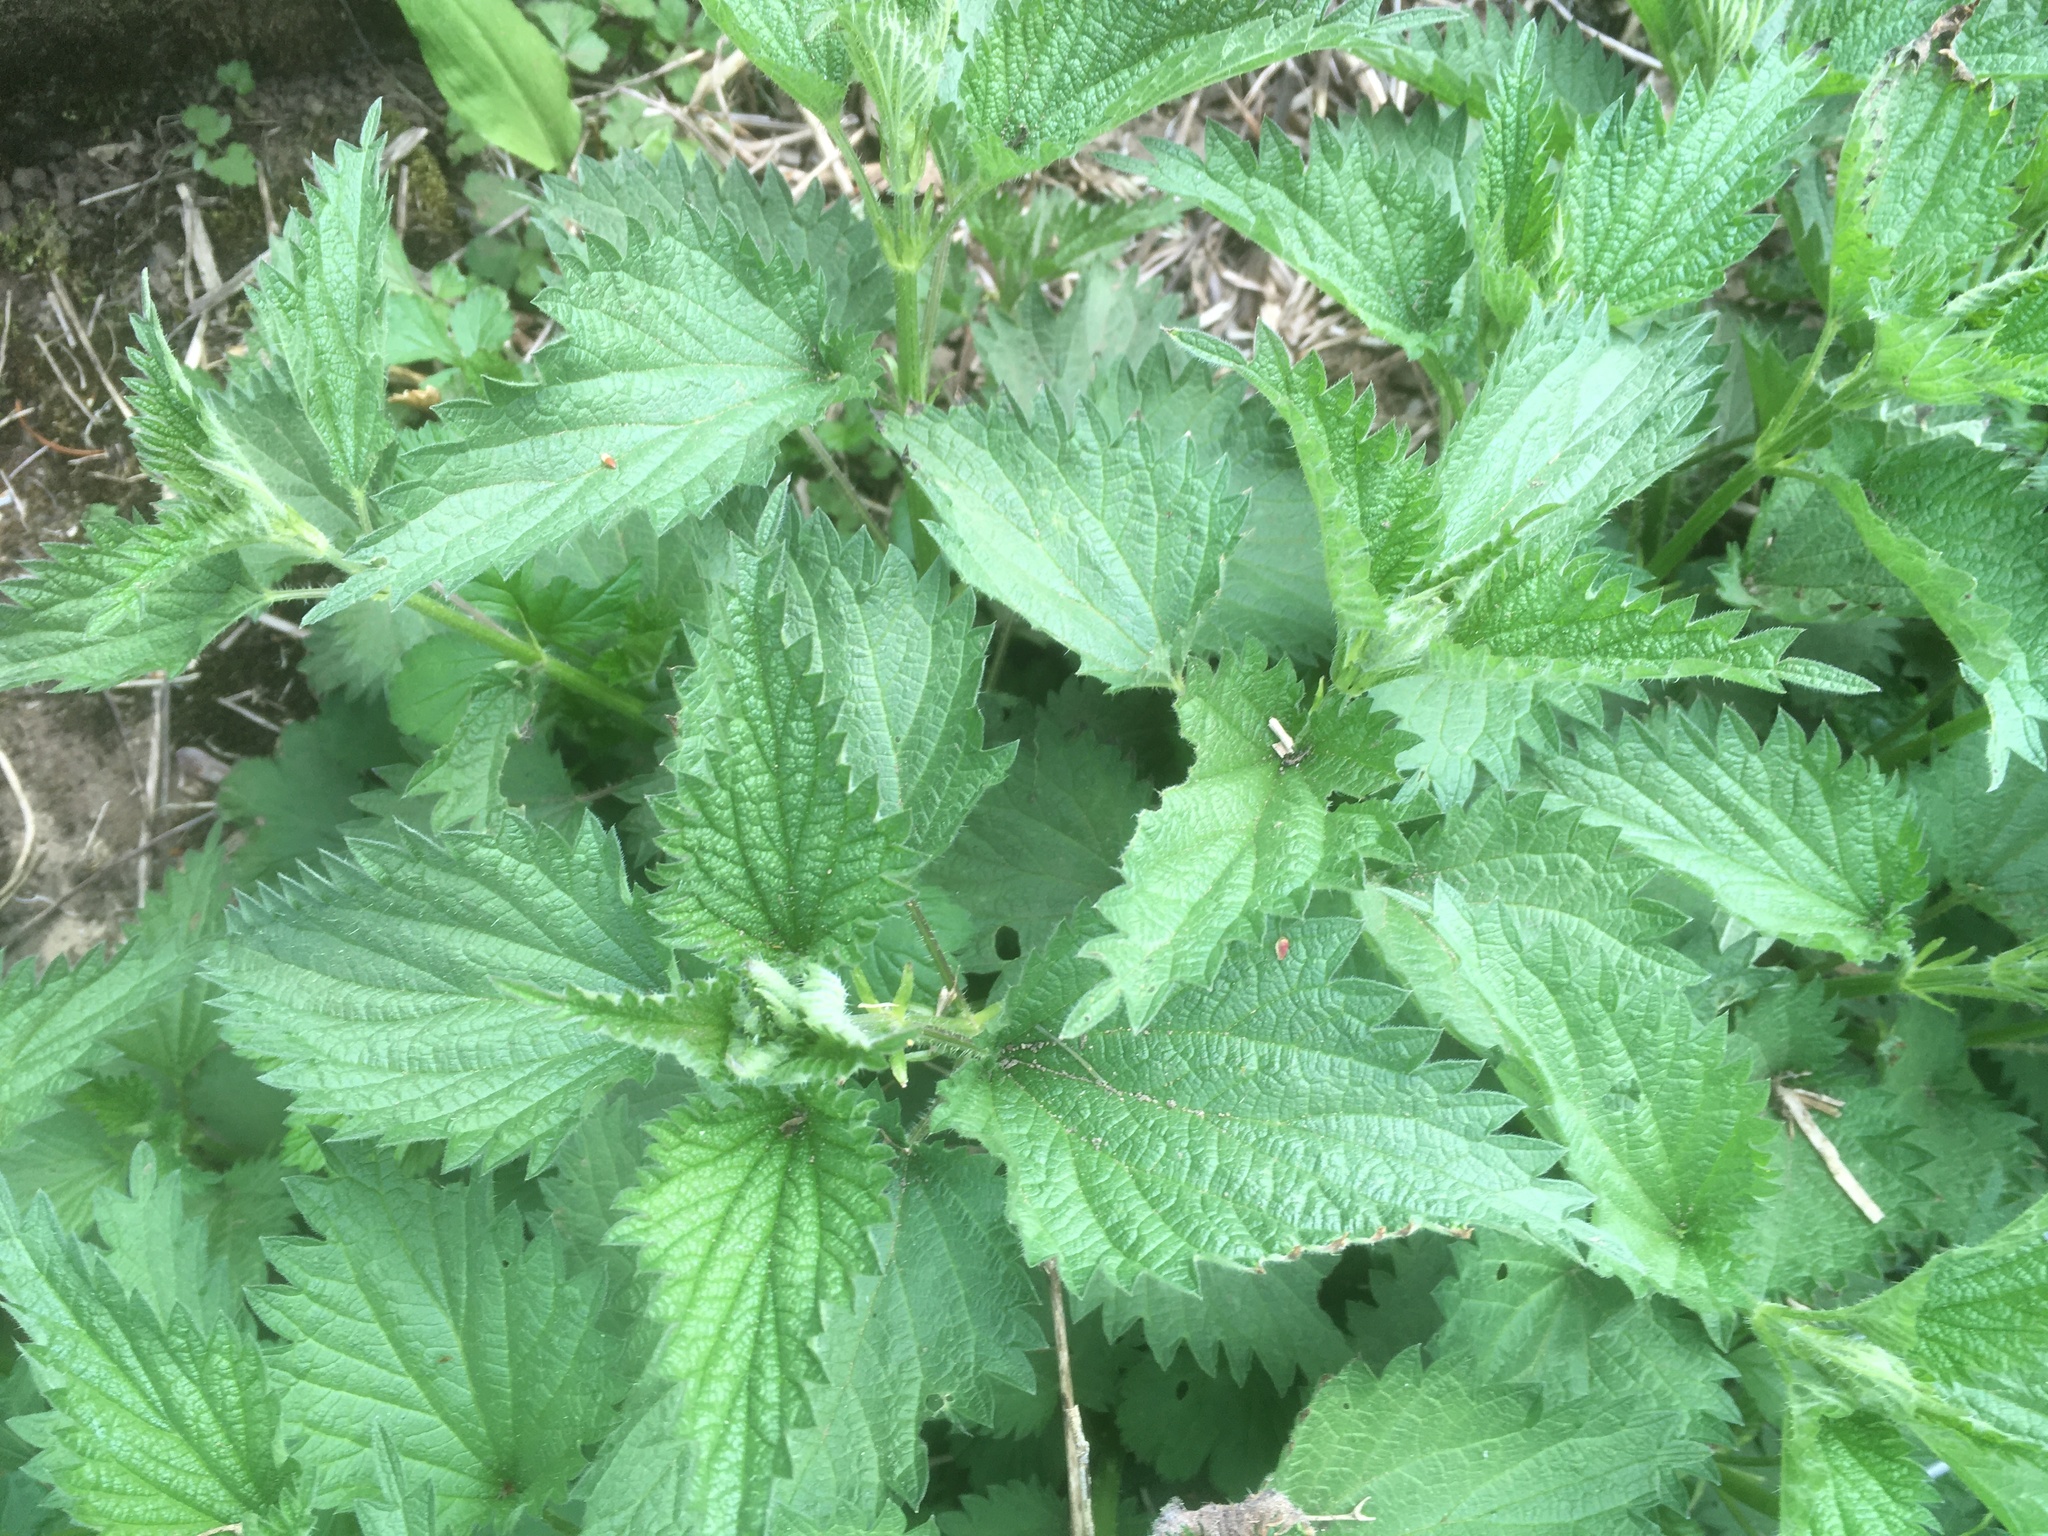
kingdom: Plantae
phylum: Tracheophyta
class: Magnoliopsida
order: Rosales
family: Urticaceae
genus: Urtica
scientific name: Urtica dioica
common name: Common nettle
